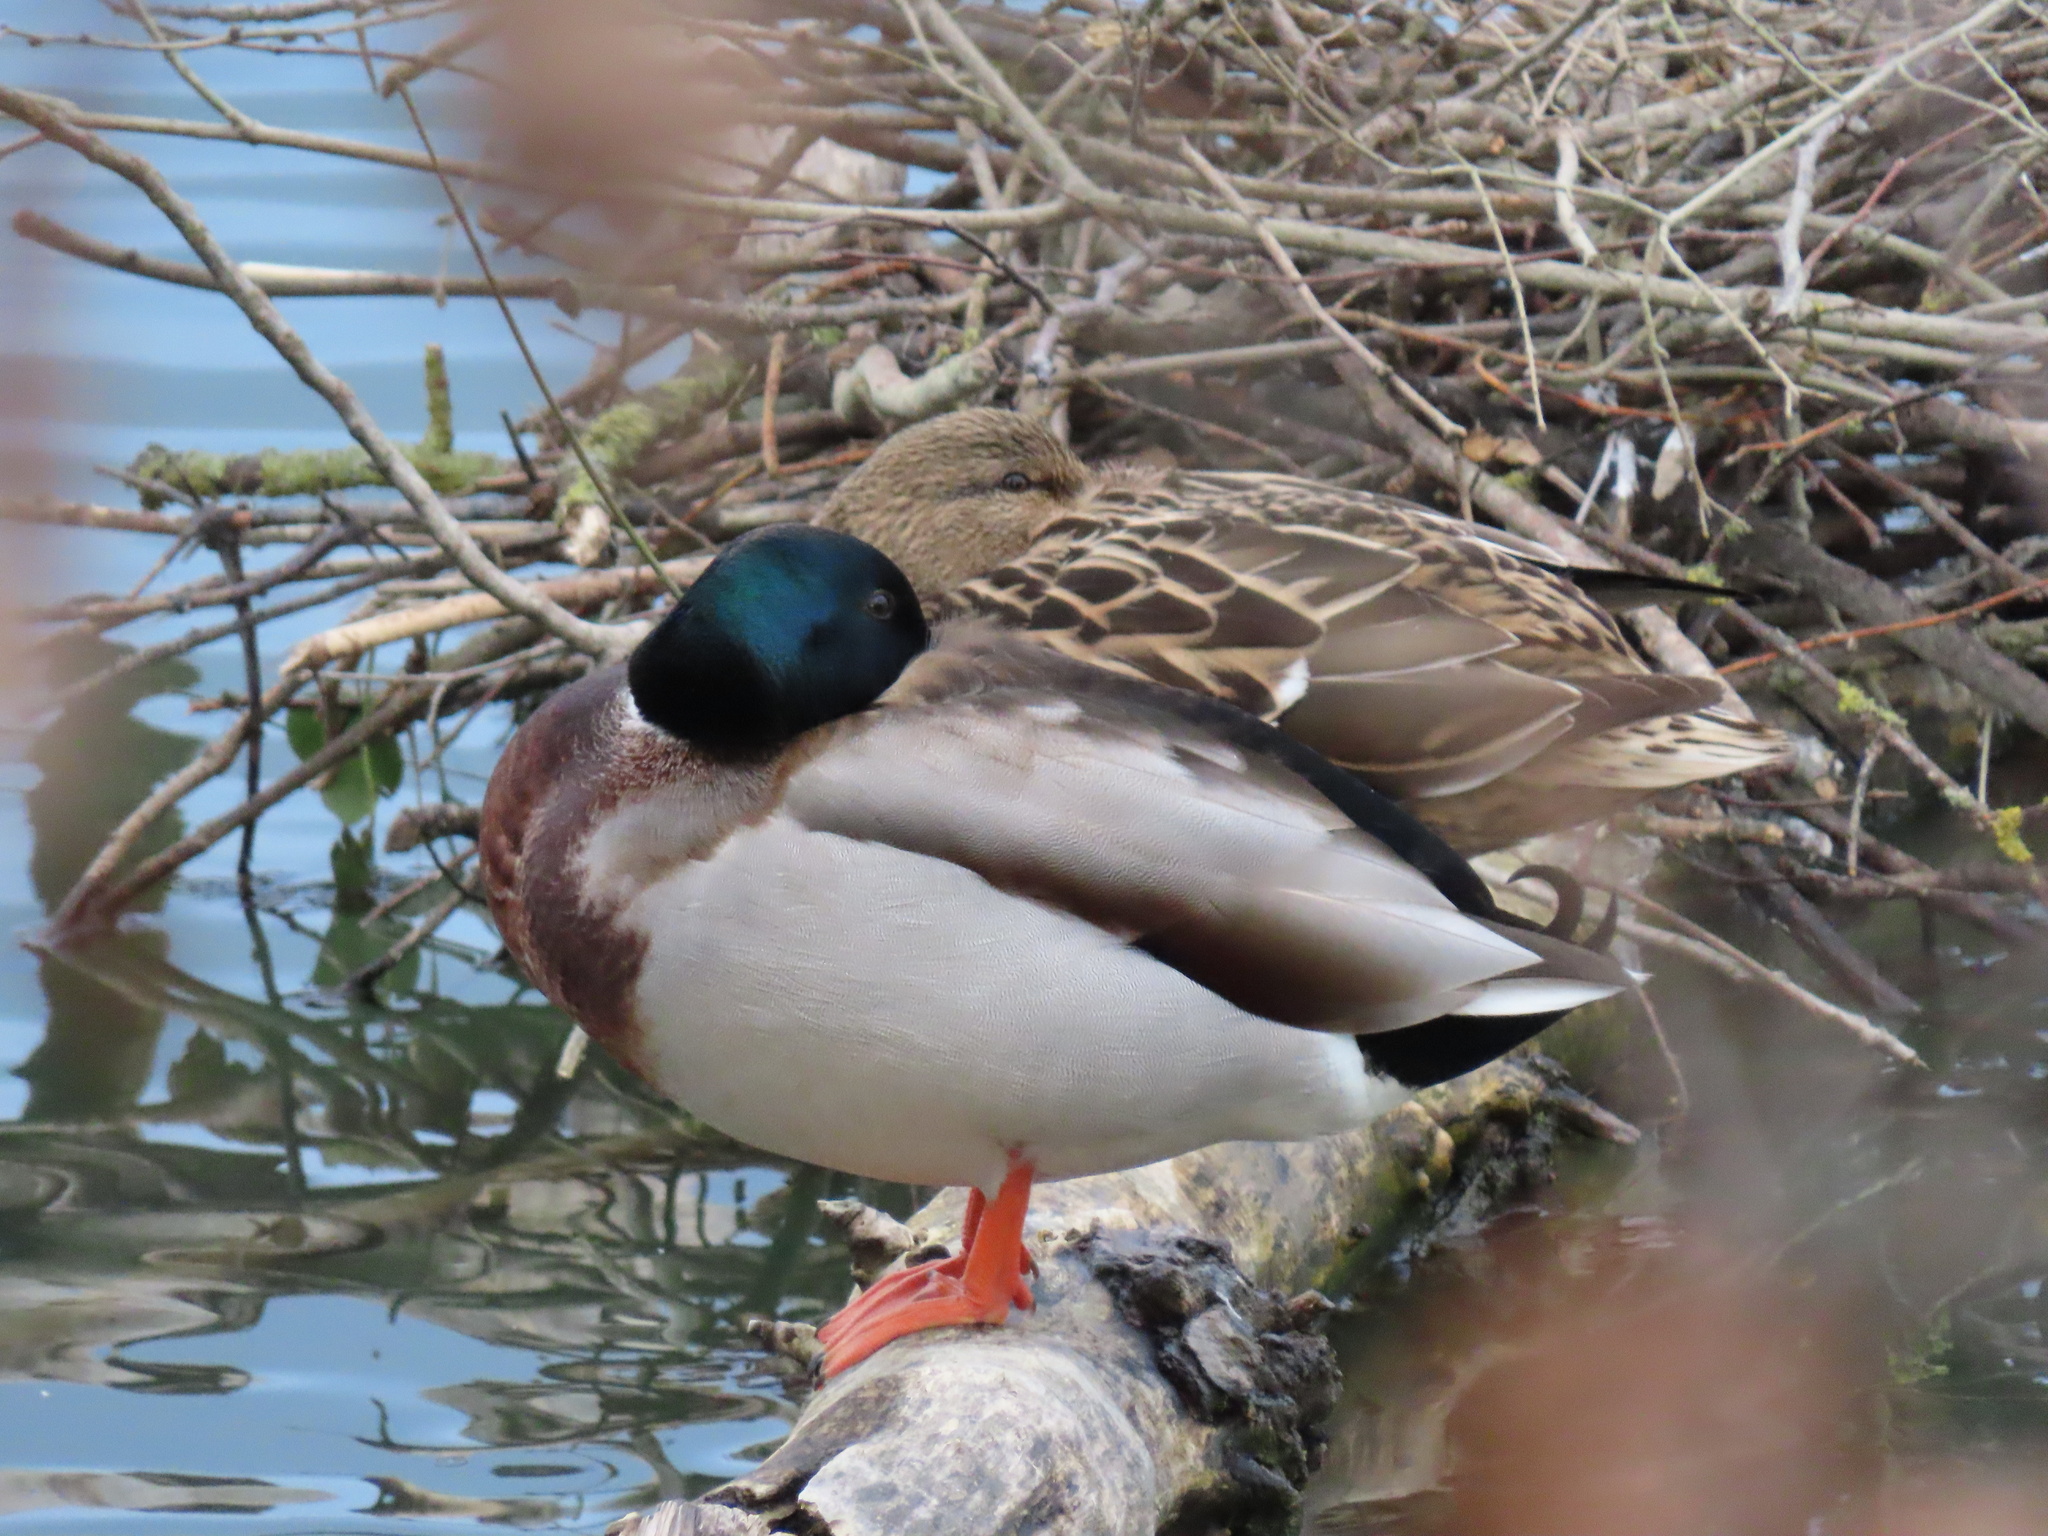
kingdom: Animalia
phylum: Chordata
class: Aves
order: Anseriformes
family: Anatidae
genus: Anas
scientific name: Anas platyrhynchos
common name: Mallard
